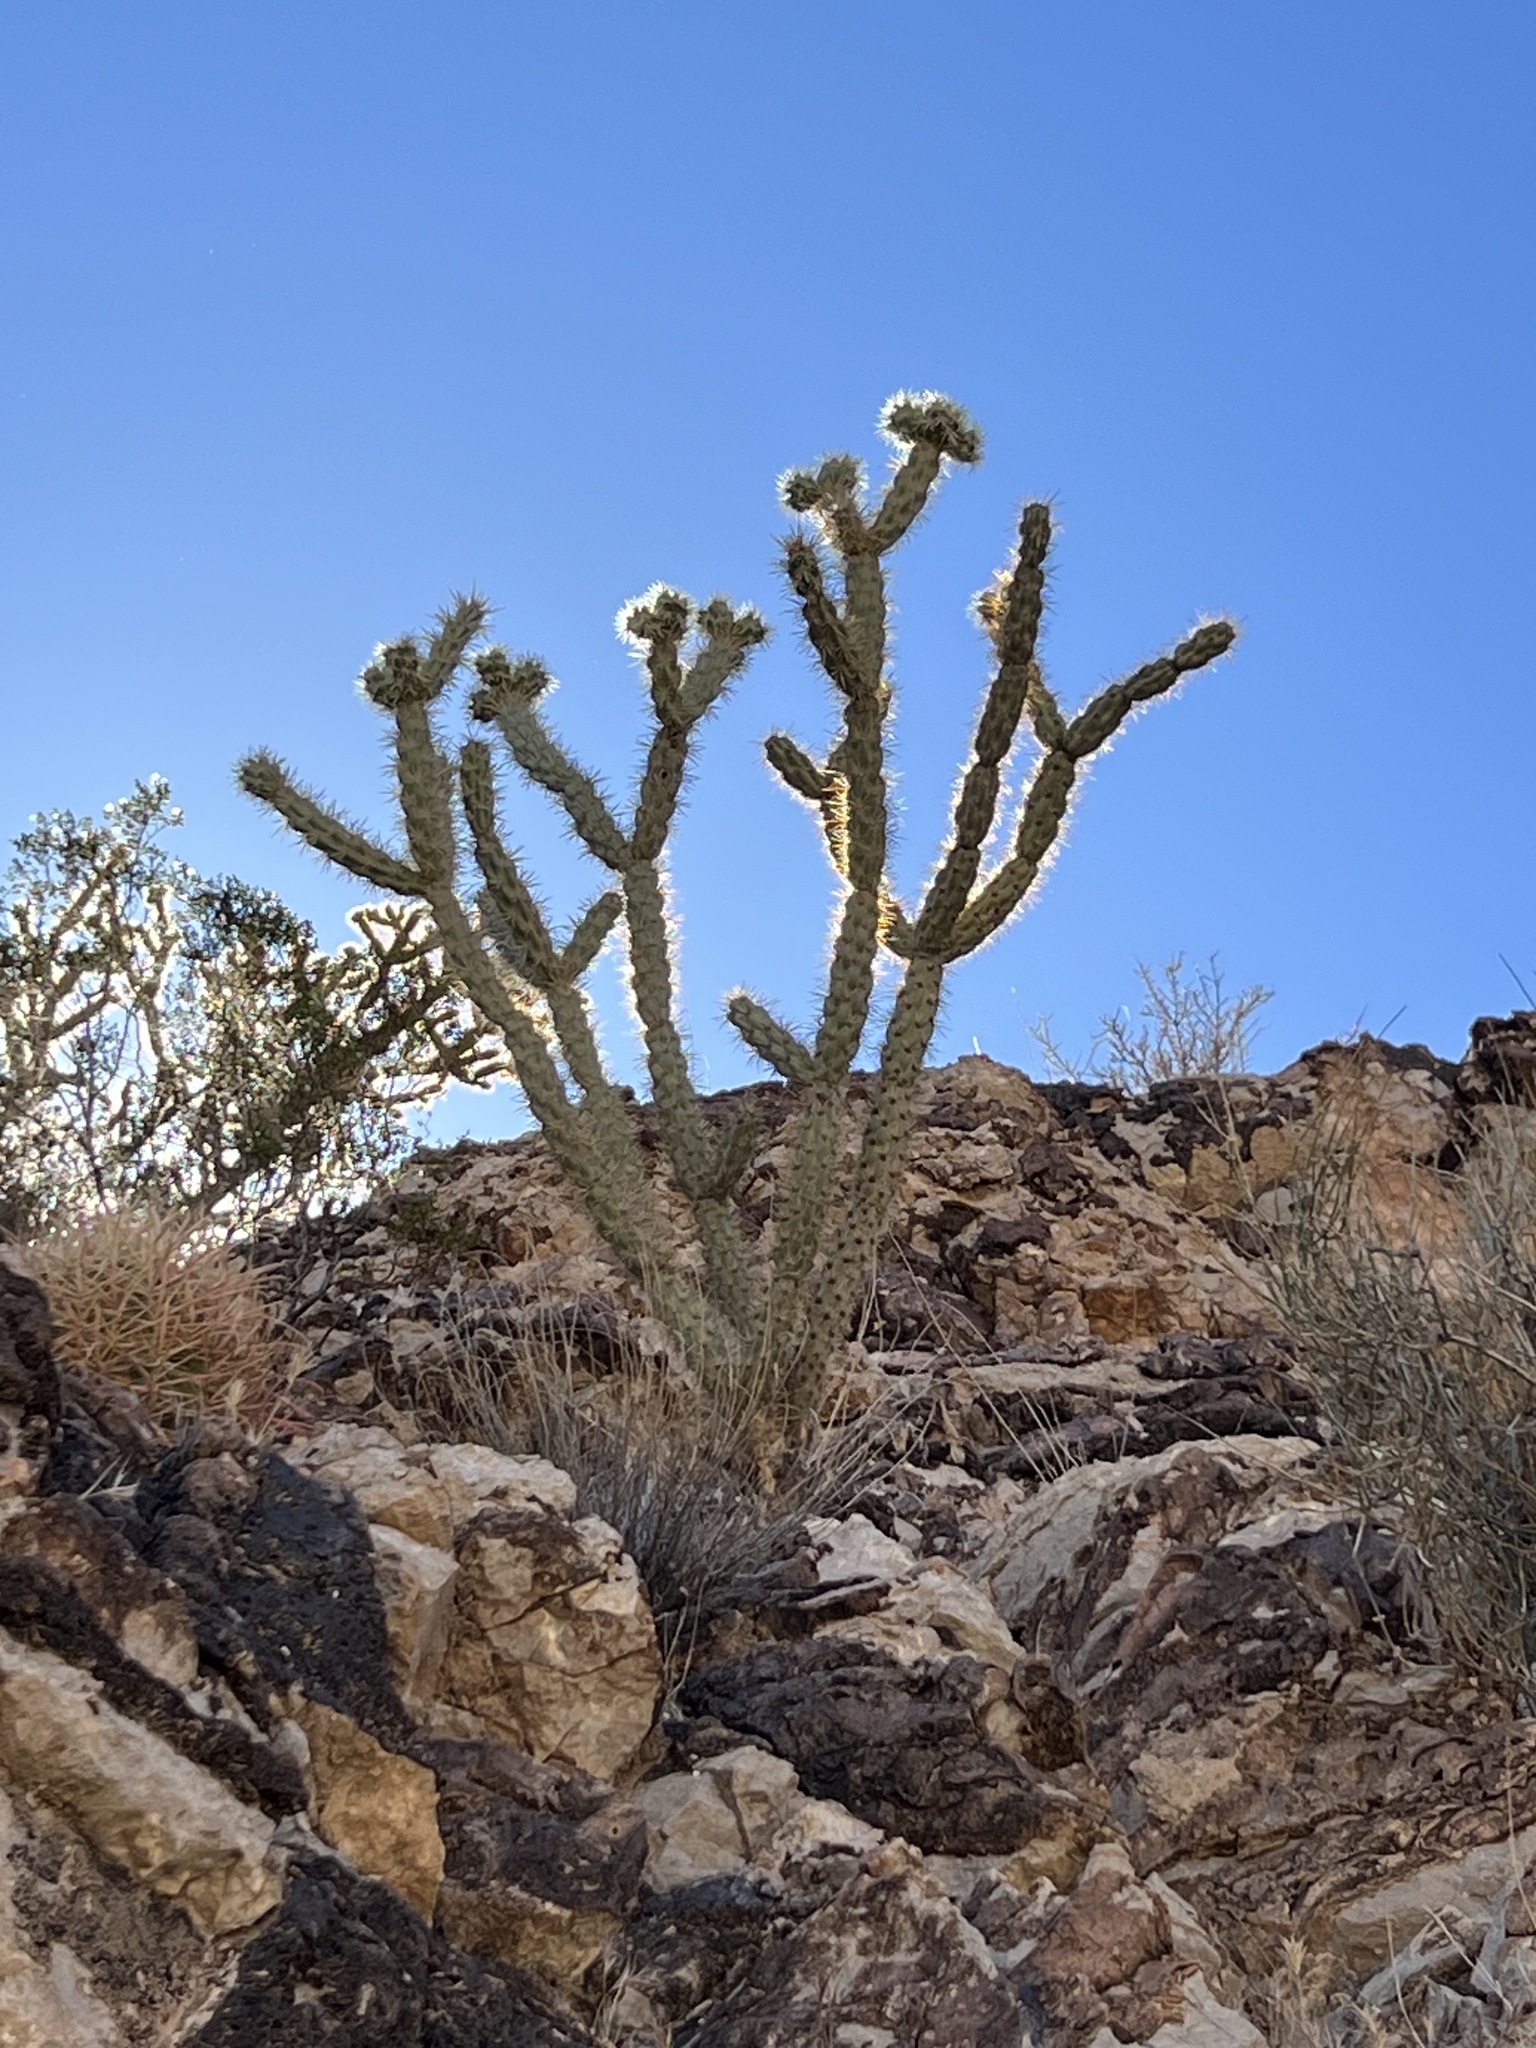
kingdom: Plantae
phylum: Tracheophyta
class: Magnoliopsida
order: Caryophyllales
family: Cactaceae
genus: Cylindropuntia
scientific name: Cylindropuntia acanthocarpa
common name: Buckhorn cholla
